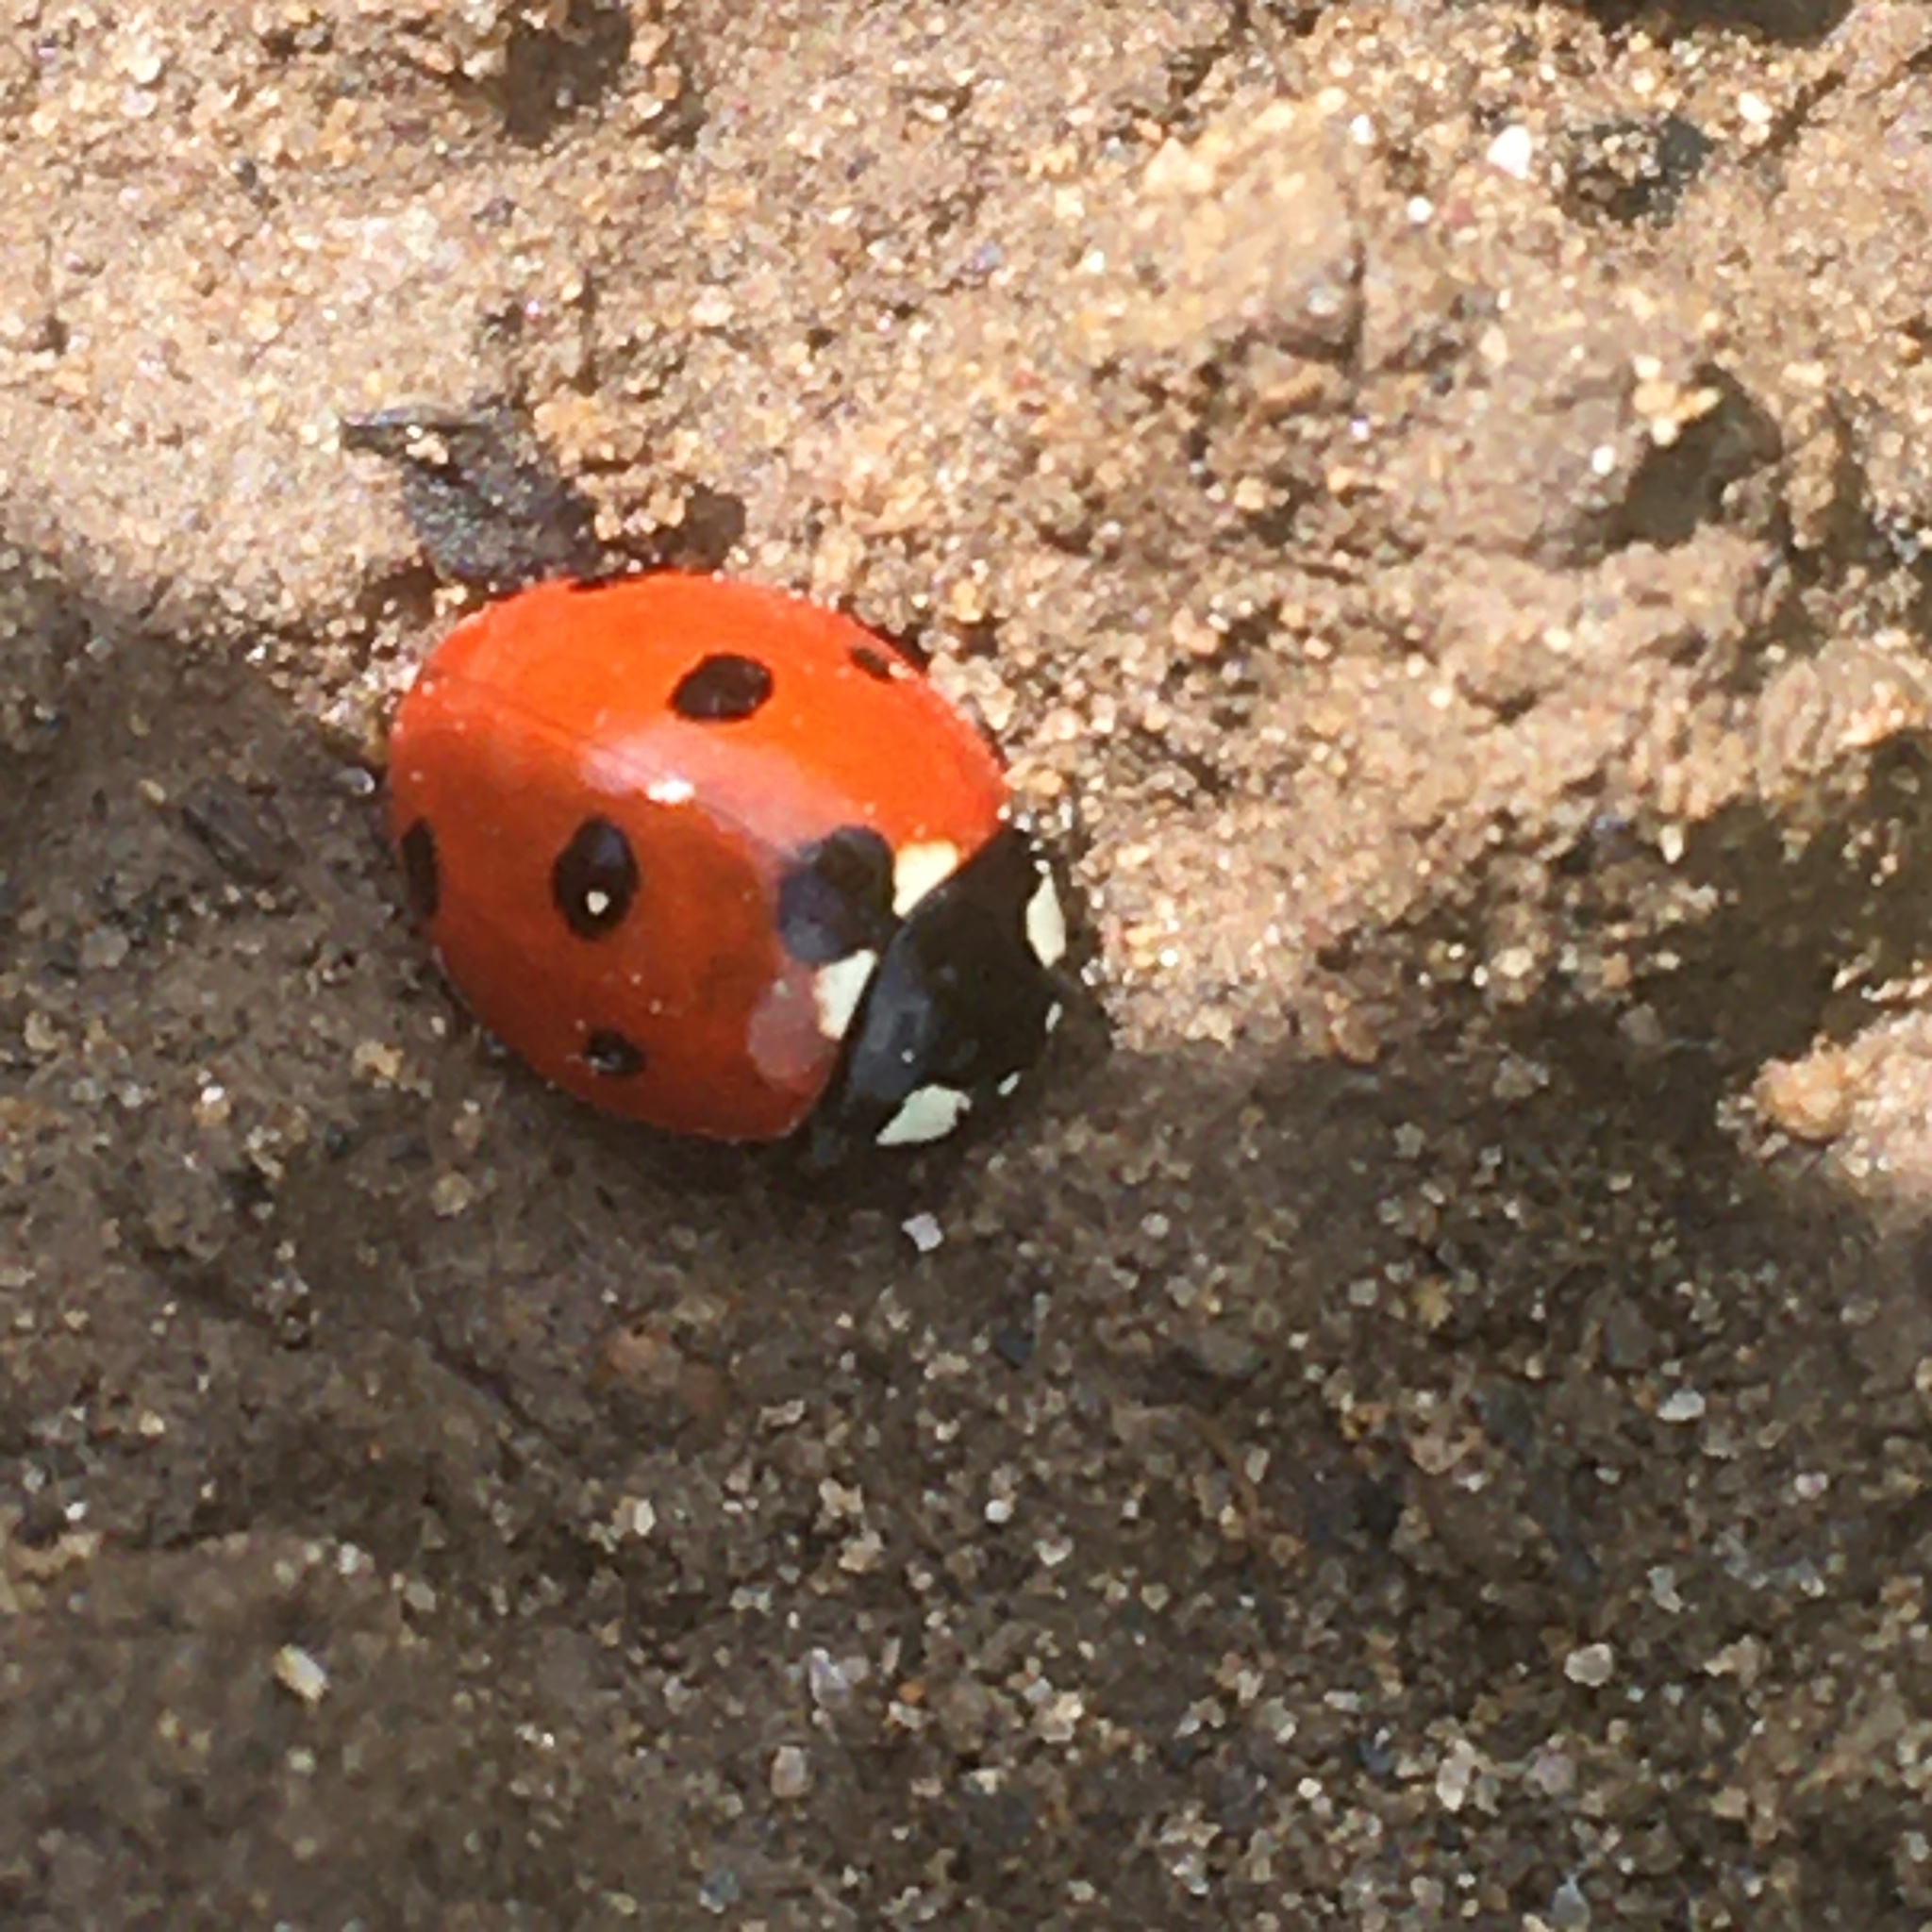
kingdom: Animalia
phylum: Arthropoda
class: Insecta
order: Coleoptera
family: Coccinellidae
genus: Coccinella
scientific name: Coccinella septempunctata
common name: Sevenspotted lady beetle
